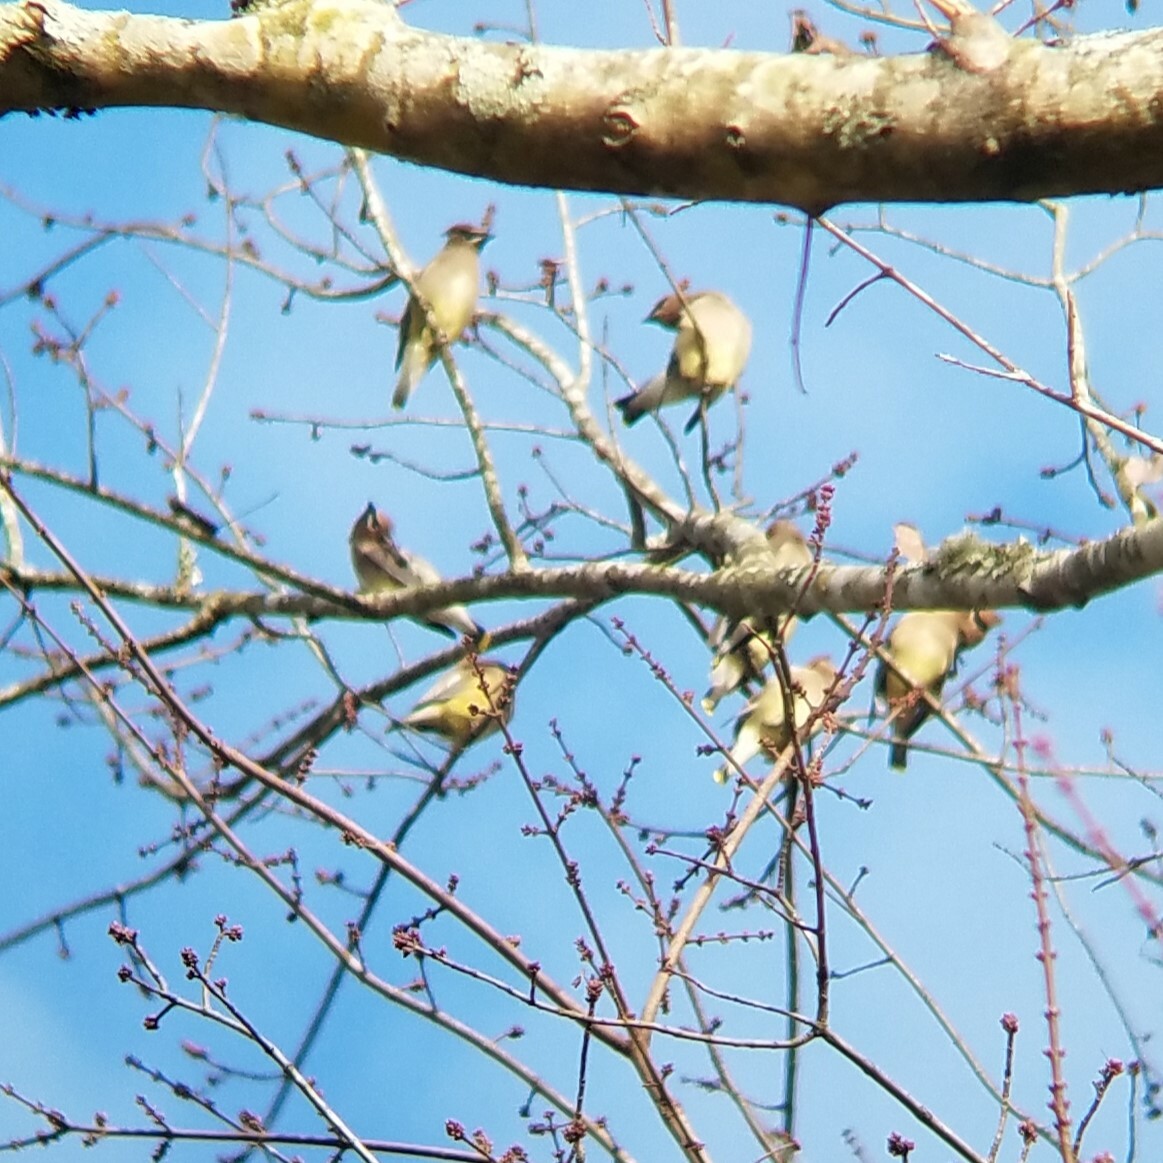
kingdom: Animalia
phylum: Chordata
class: Aves
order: Passeriformes
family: Bombycillidae
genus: Bombycilla
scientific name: Bombycilla cedrorum
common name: Cedar waxwing
